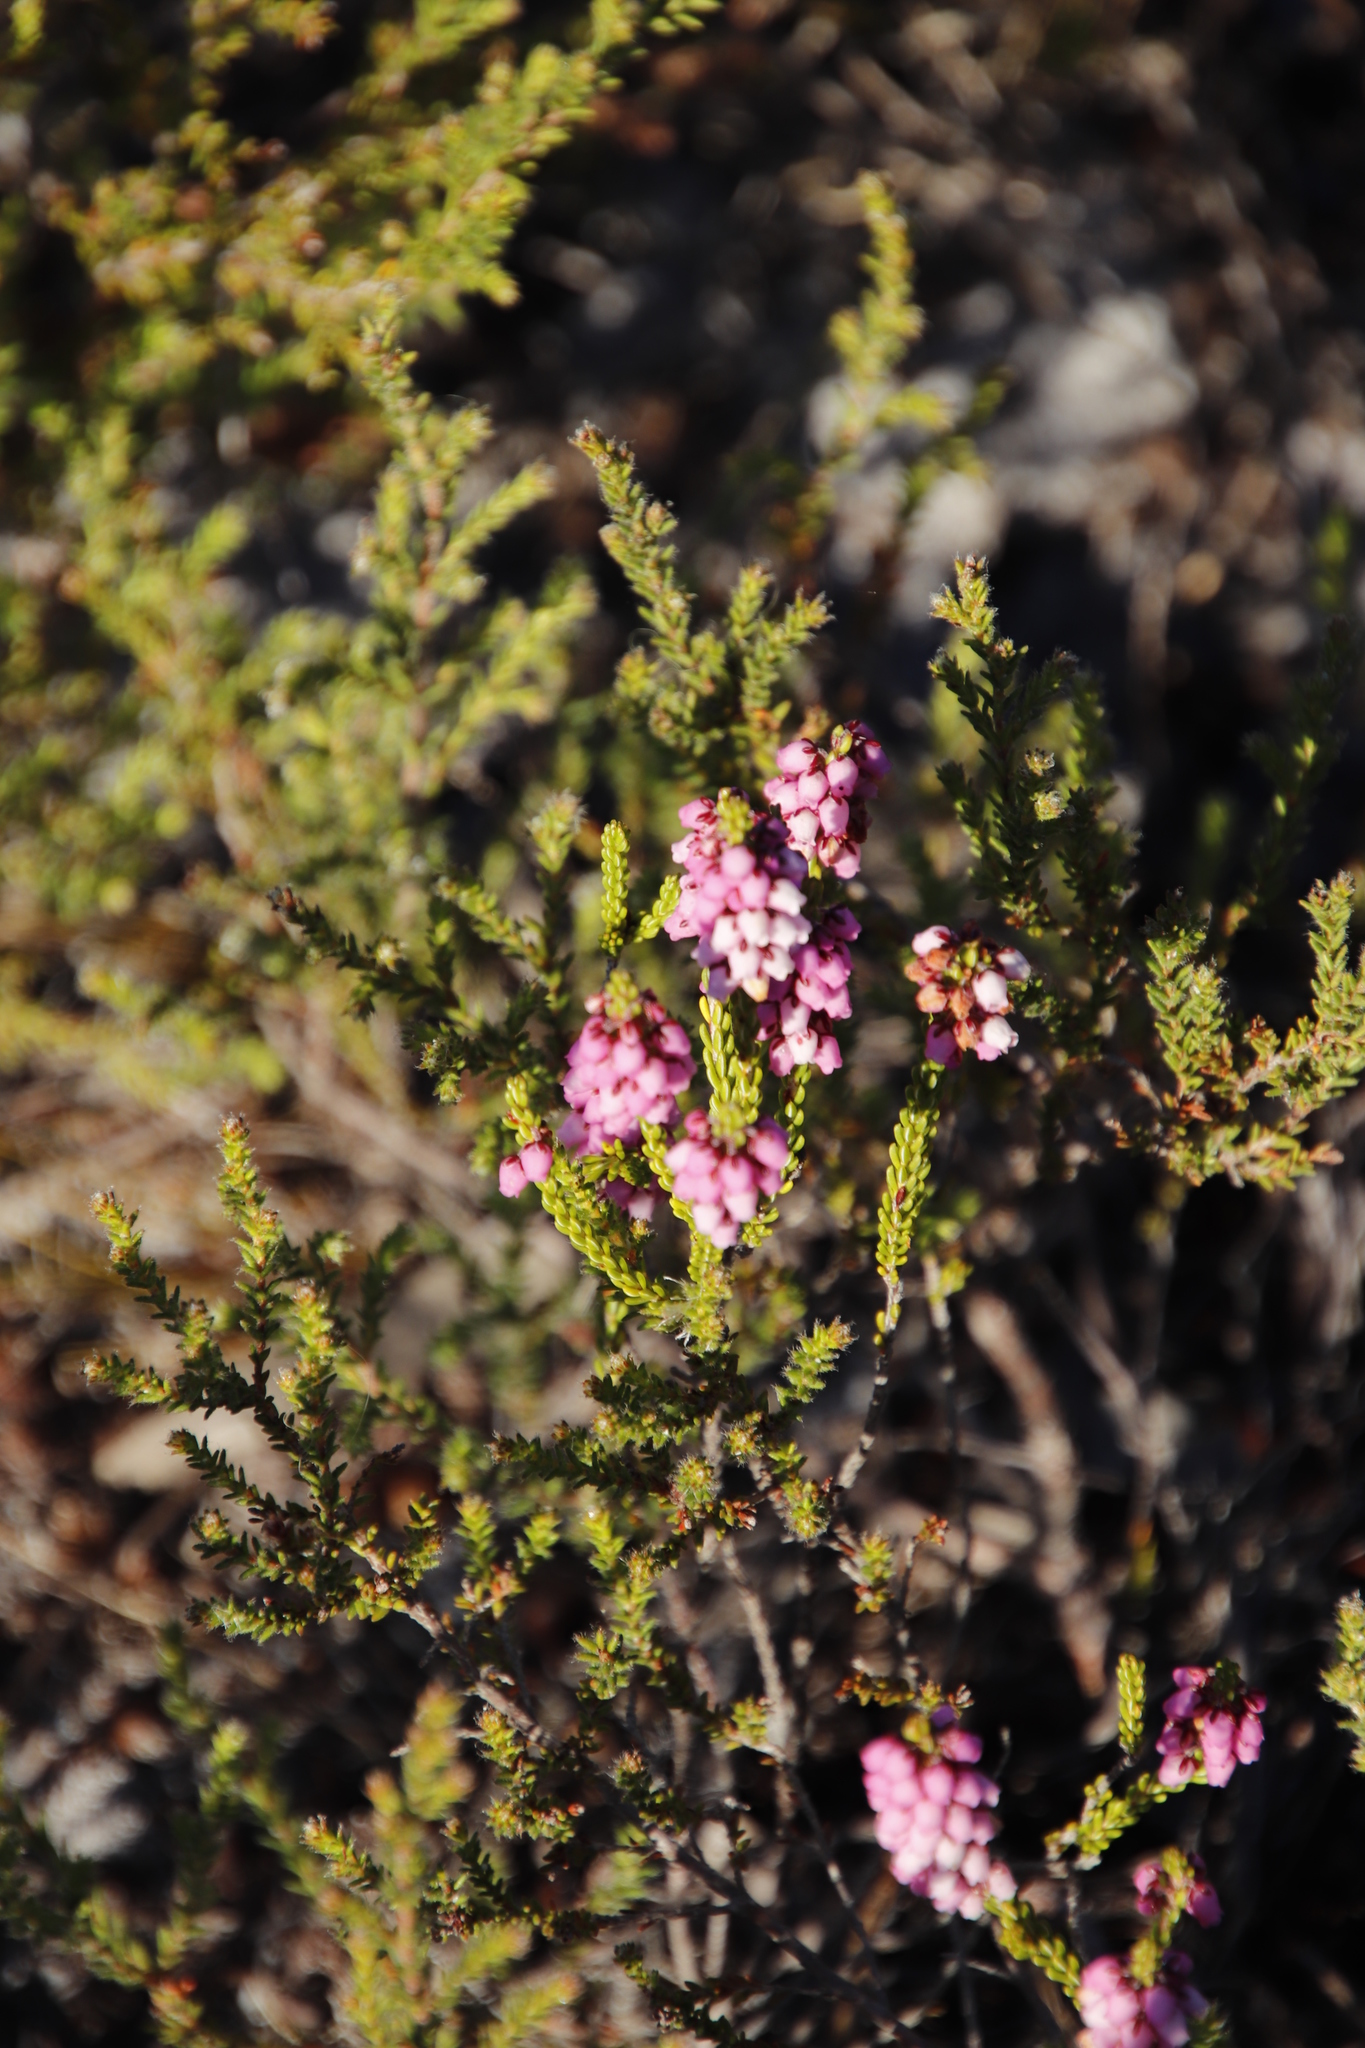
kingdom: Plantae
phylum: Tracheophyta
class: Magnoliopsida
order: Ericales
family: Ericaceae
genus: Erica
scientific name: Erica pulchella
